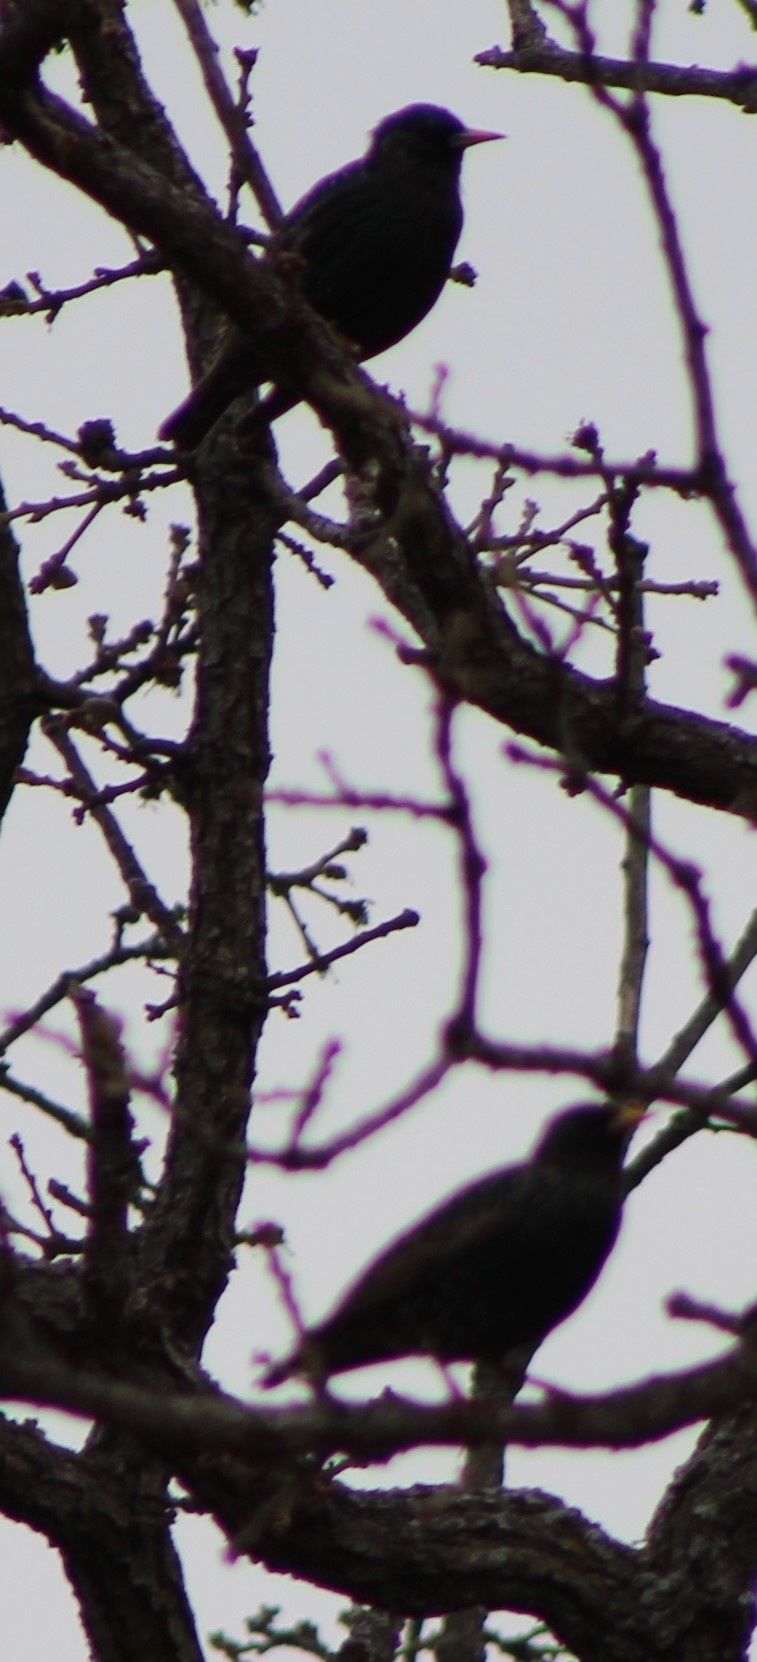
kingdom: Animalia
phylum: Chordata
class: Aves
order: Passeriformes
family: Sturnidae
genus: Sturnus
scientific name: Sturnus vulgaris
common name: Common starling
